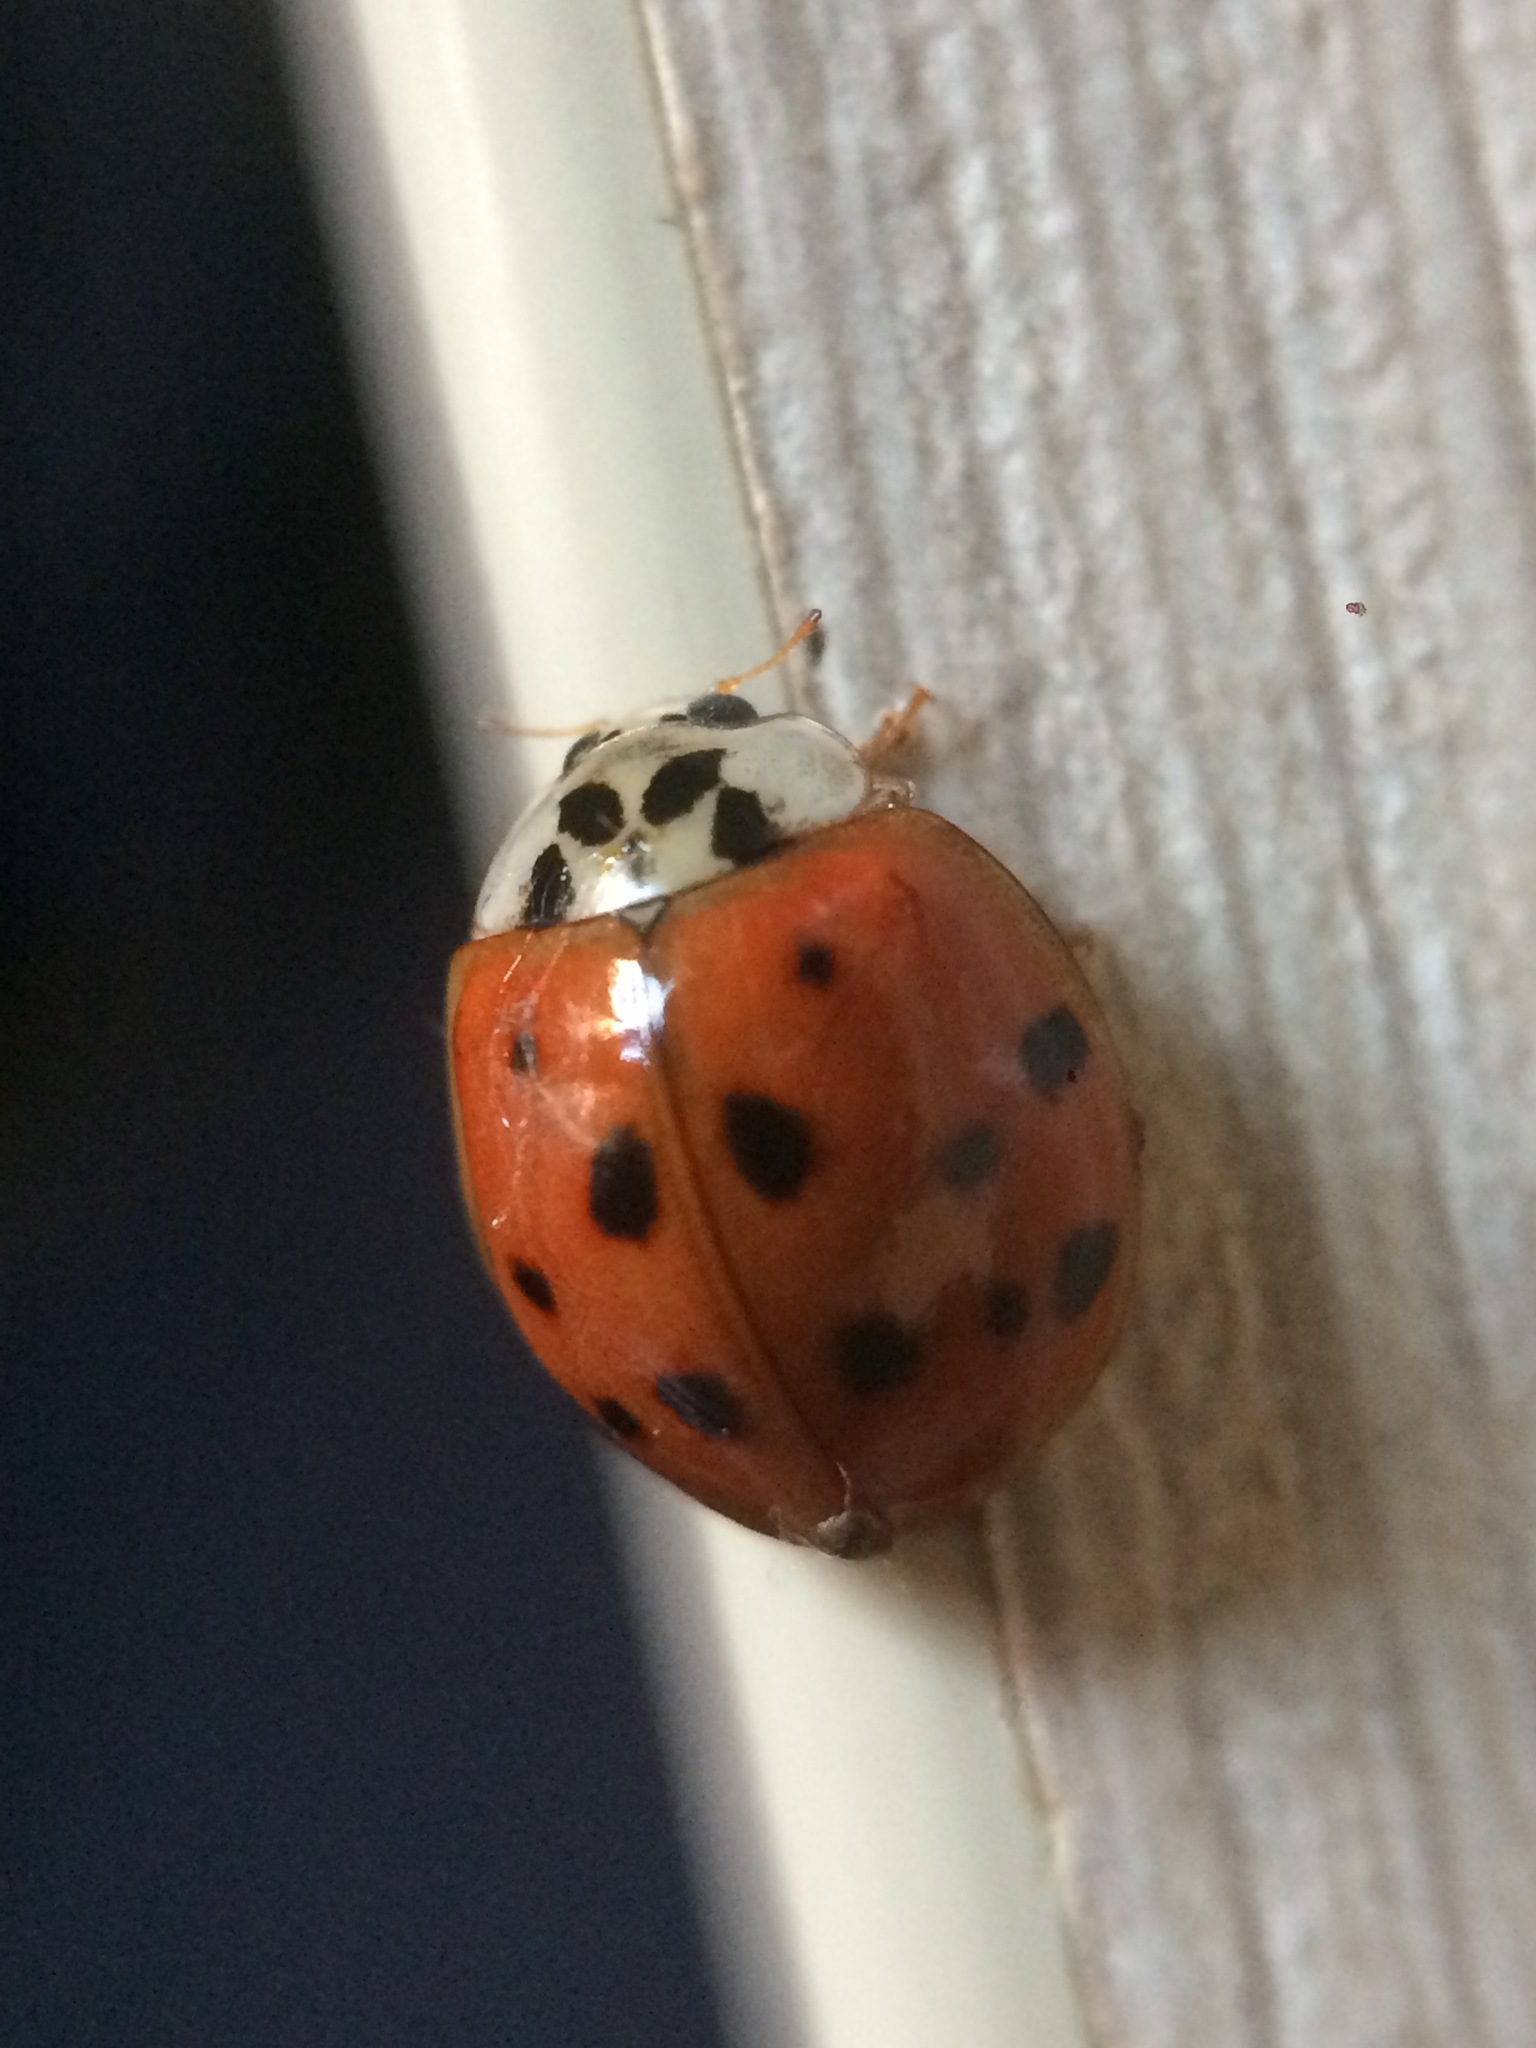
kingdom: Animalia
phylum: Arthropoda
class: Insecta
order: Coleoptera
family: Coccinellidae
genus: Harmonia
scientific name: Harmonia axyridis
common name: Harlequin ladybird
